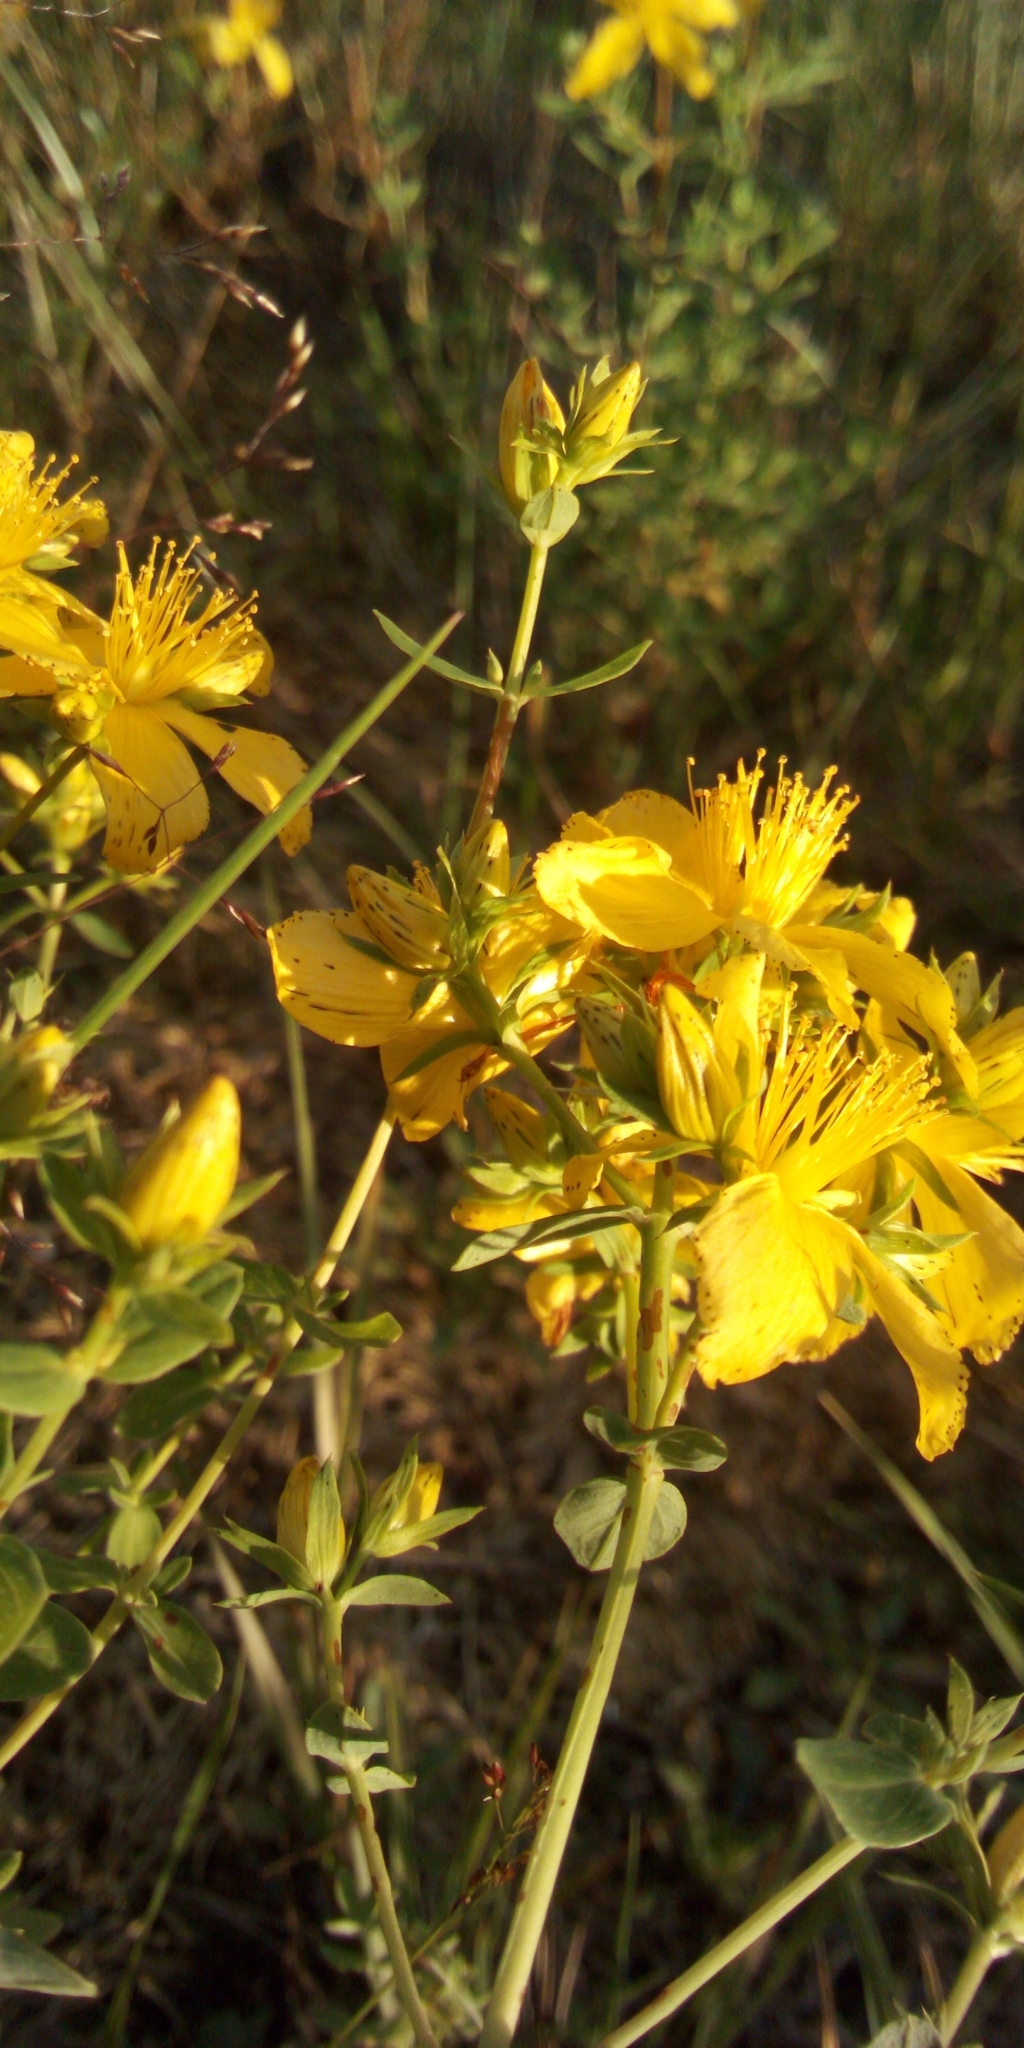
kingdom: Plantae
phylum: Tracheophyta
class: Magnoliopsida
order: Malpighiales
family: Hypericaceae
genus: Hypericum
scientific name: Hypericum perforatum
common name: Common st. johnswort
